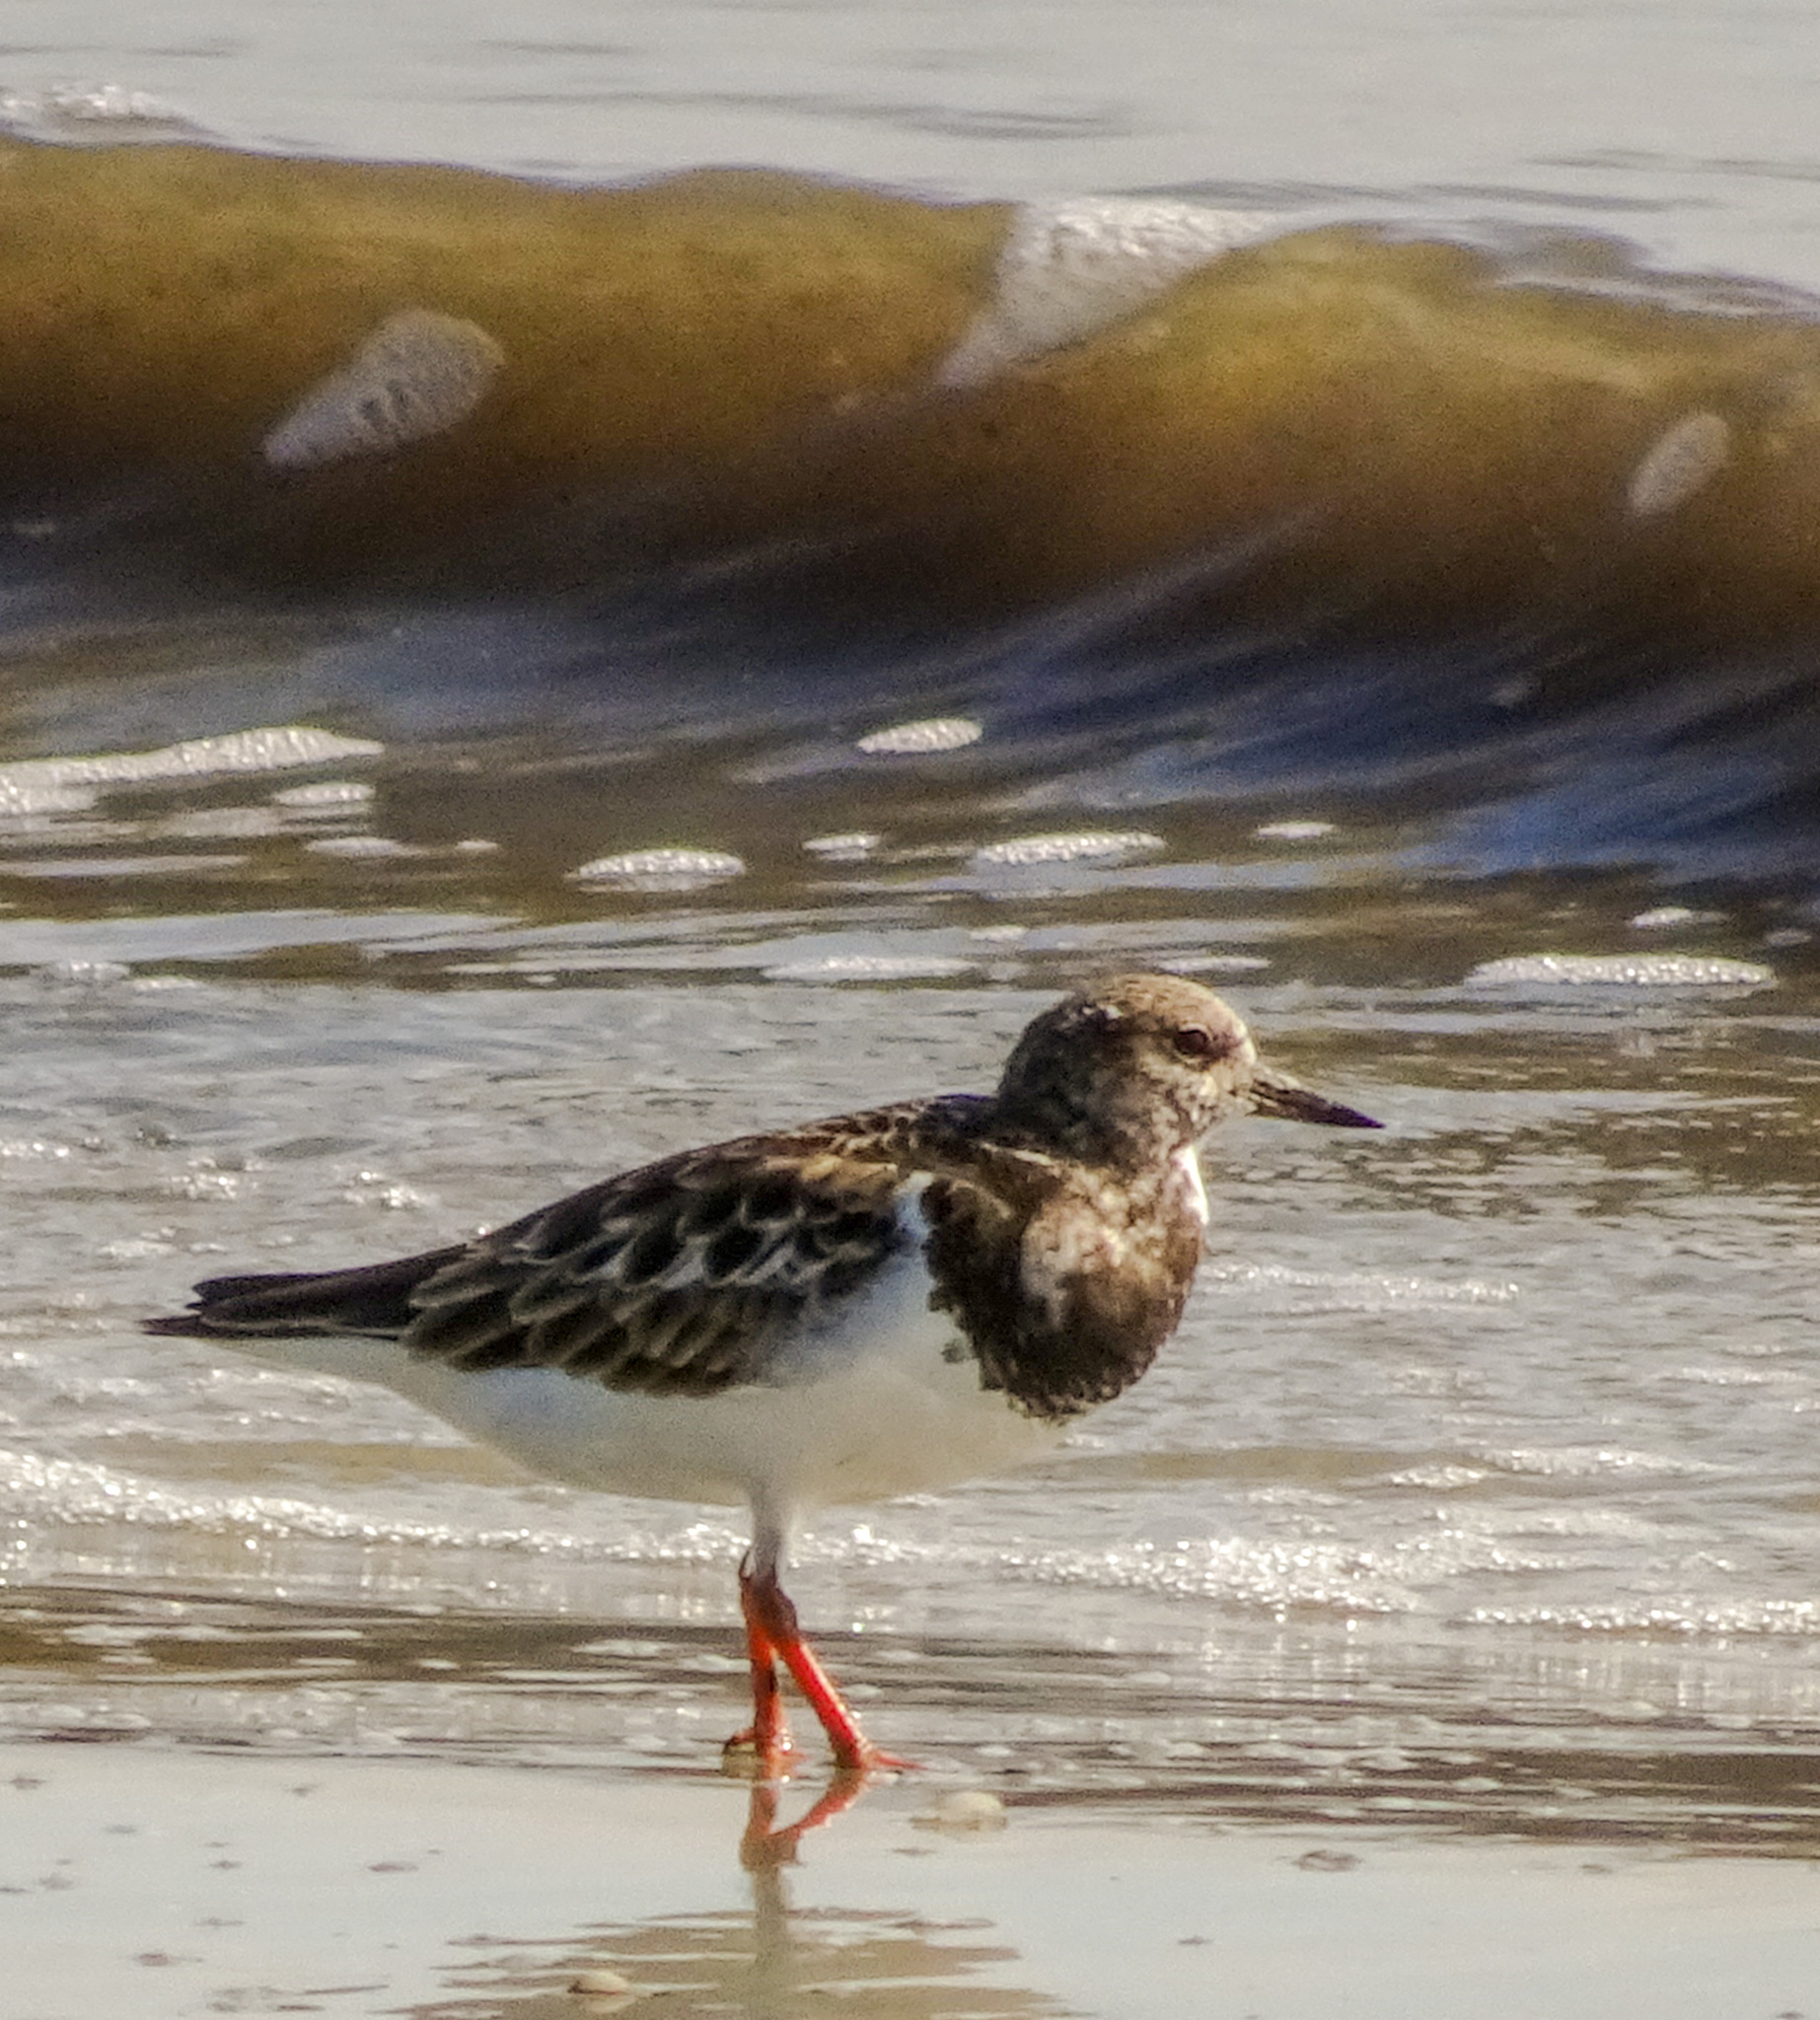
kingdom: Animalia
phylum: Chordata
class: Aves
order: Charadriiformes
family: Scolopacidae
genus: Arenaria
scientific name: Arenaria interpres
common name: Ruddy turnstone
